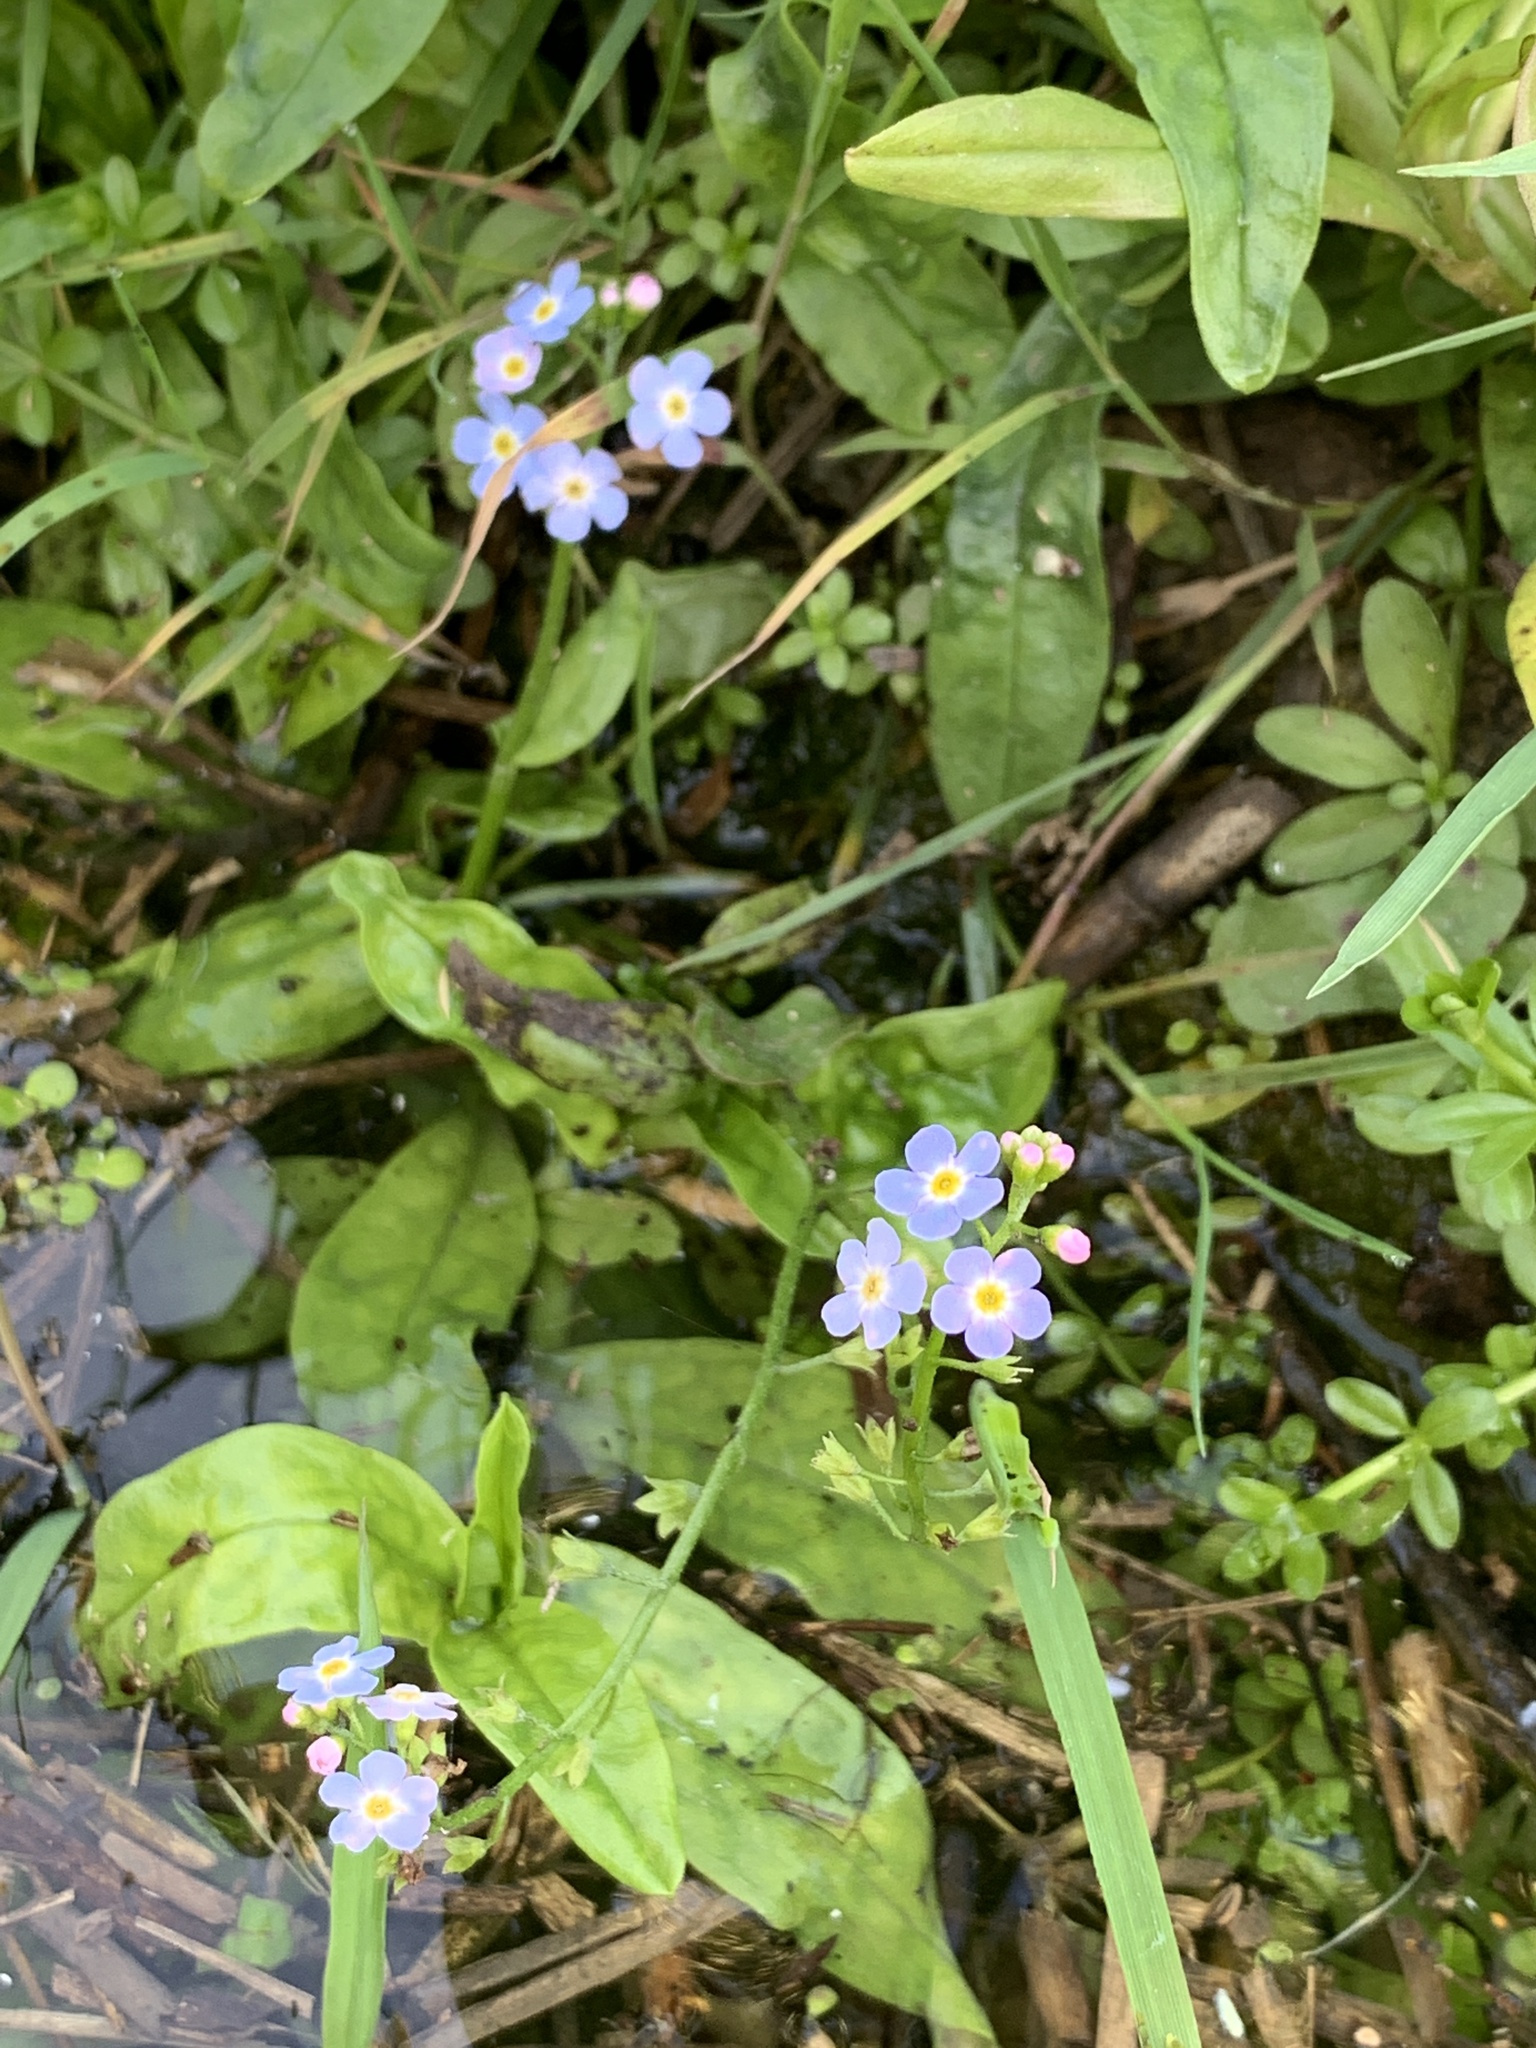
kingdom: Plantae
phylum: Tracheophyta
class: Magnoliopsida
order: Boraginales
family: Boraginaceae
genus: Myosotis
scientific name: Myosotis scorpioides
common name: Water forget-me-not
